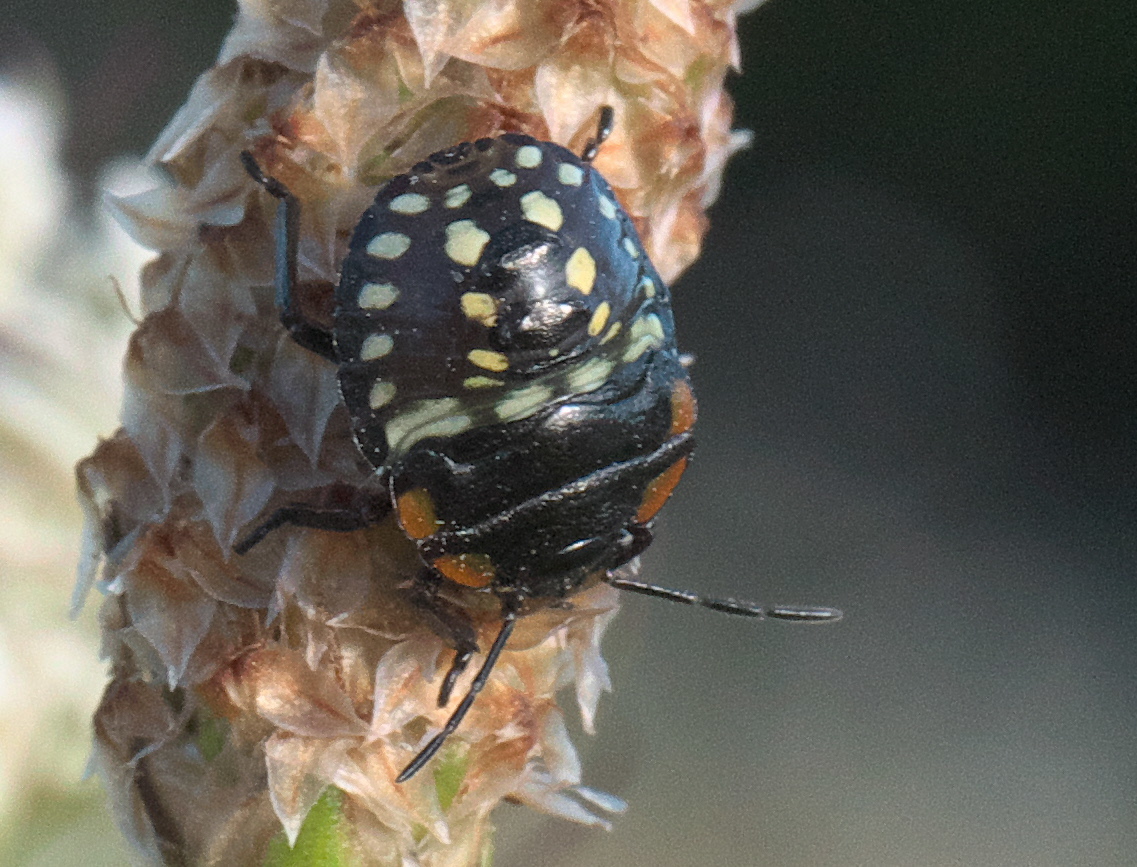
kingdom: Animalia
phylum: Arthropoda
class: Insecta
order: Hemiptera
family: Pentatomidae
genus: Nezara
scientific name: Nezara viridula
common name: Southern green stink bug
